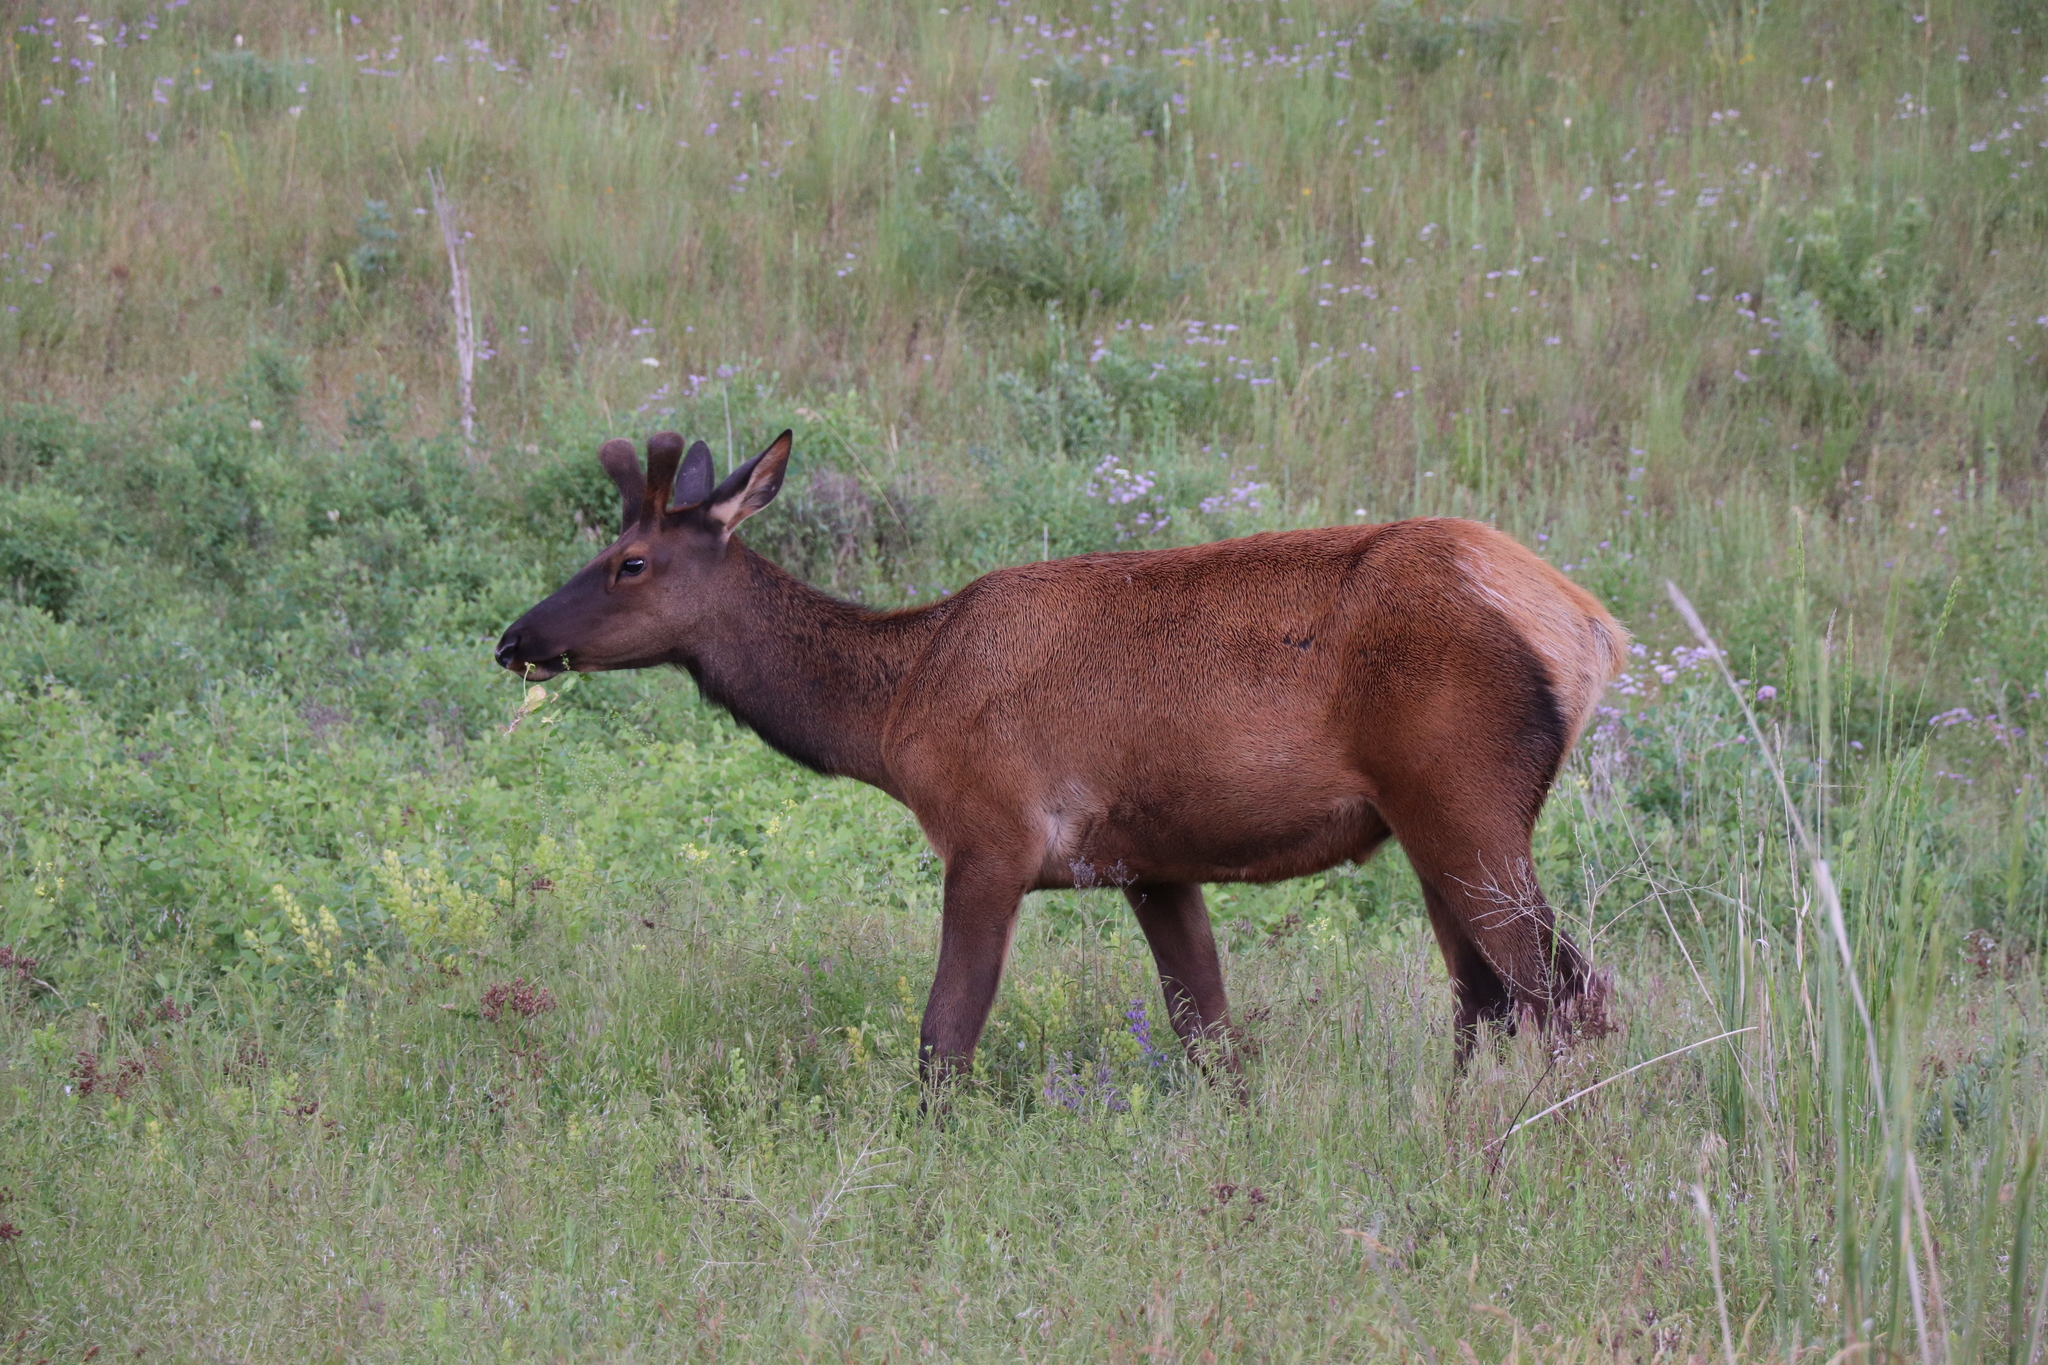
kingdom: Animalia
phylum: Chordata
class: Mammalia
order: Artiodactyla
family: Cervidae
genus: Cervus
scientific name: Cervus elaphus
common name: Red deer
